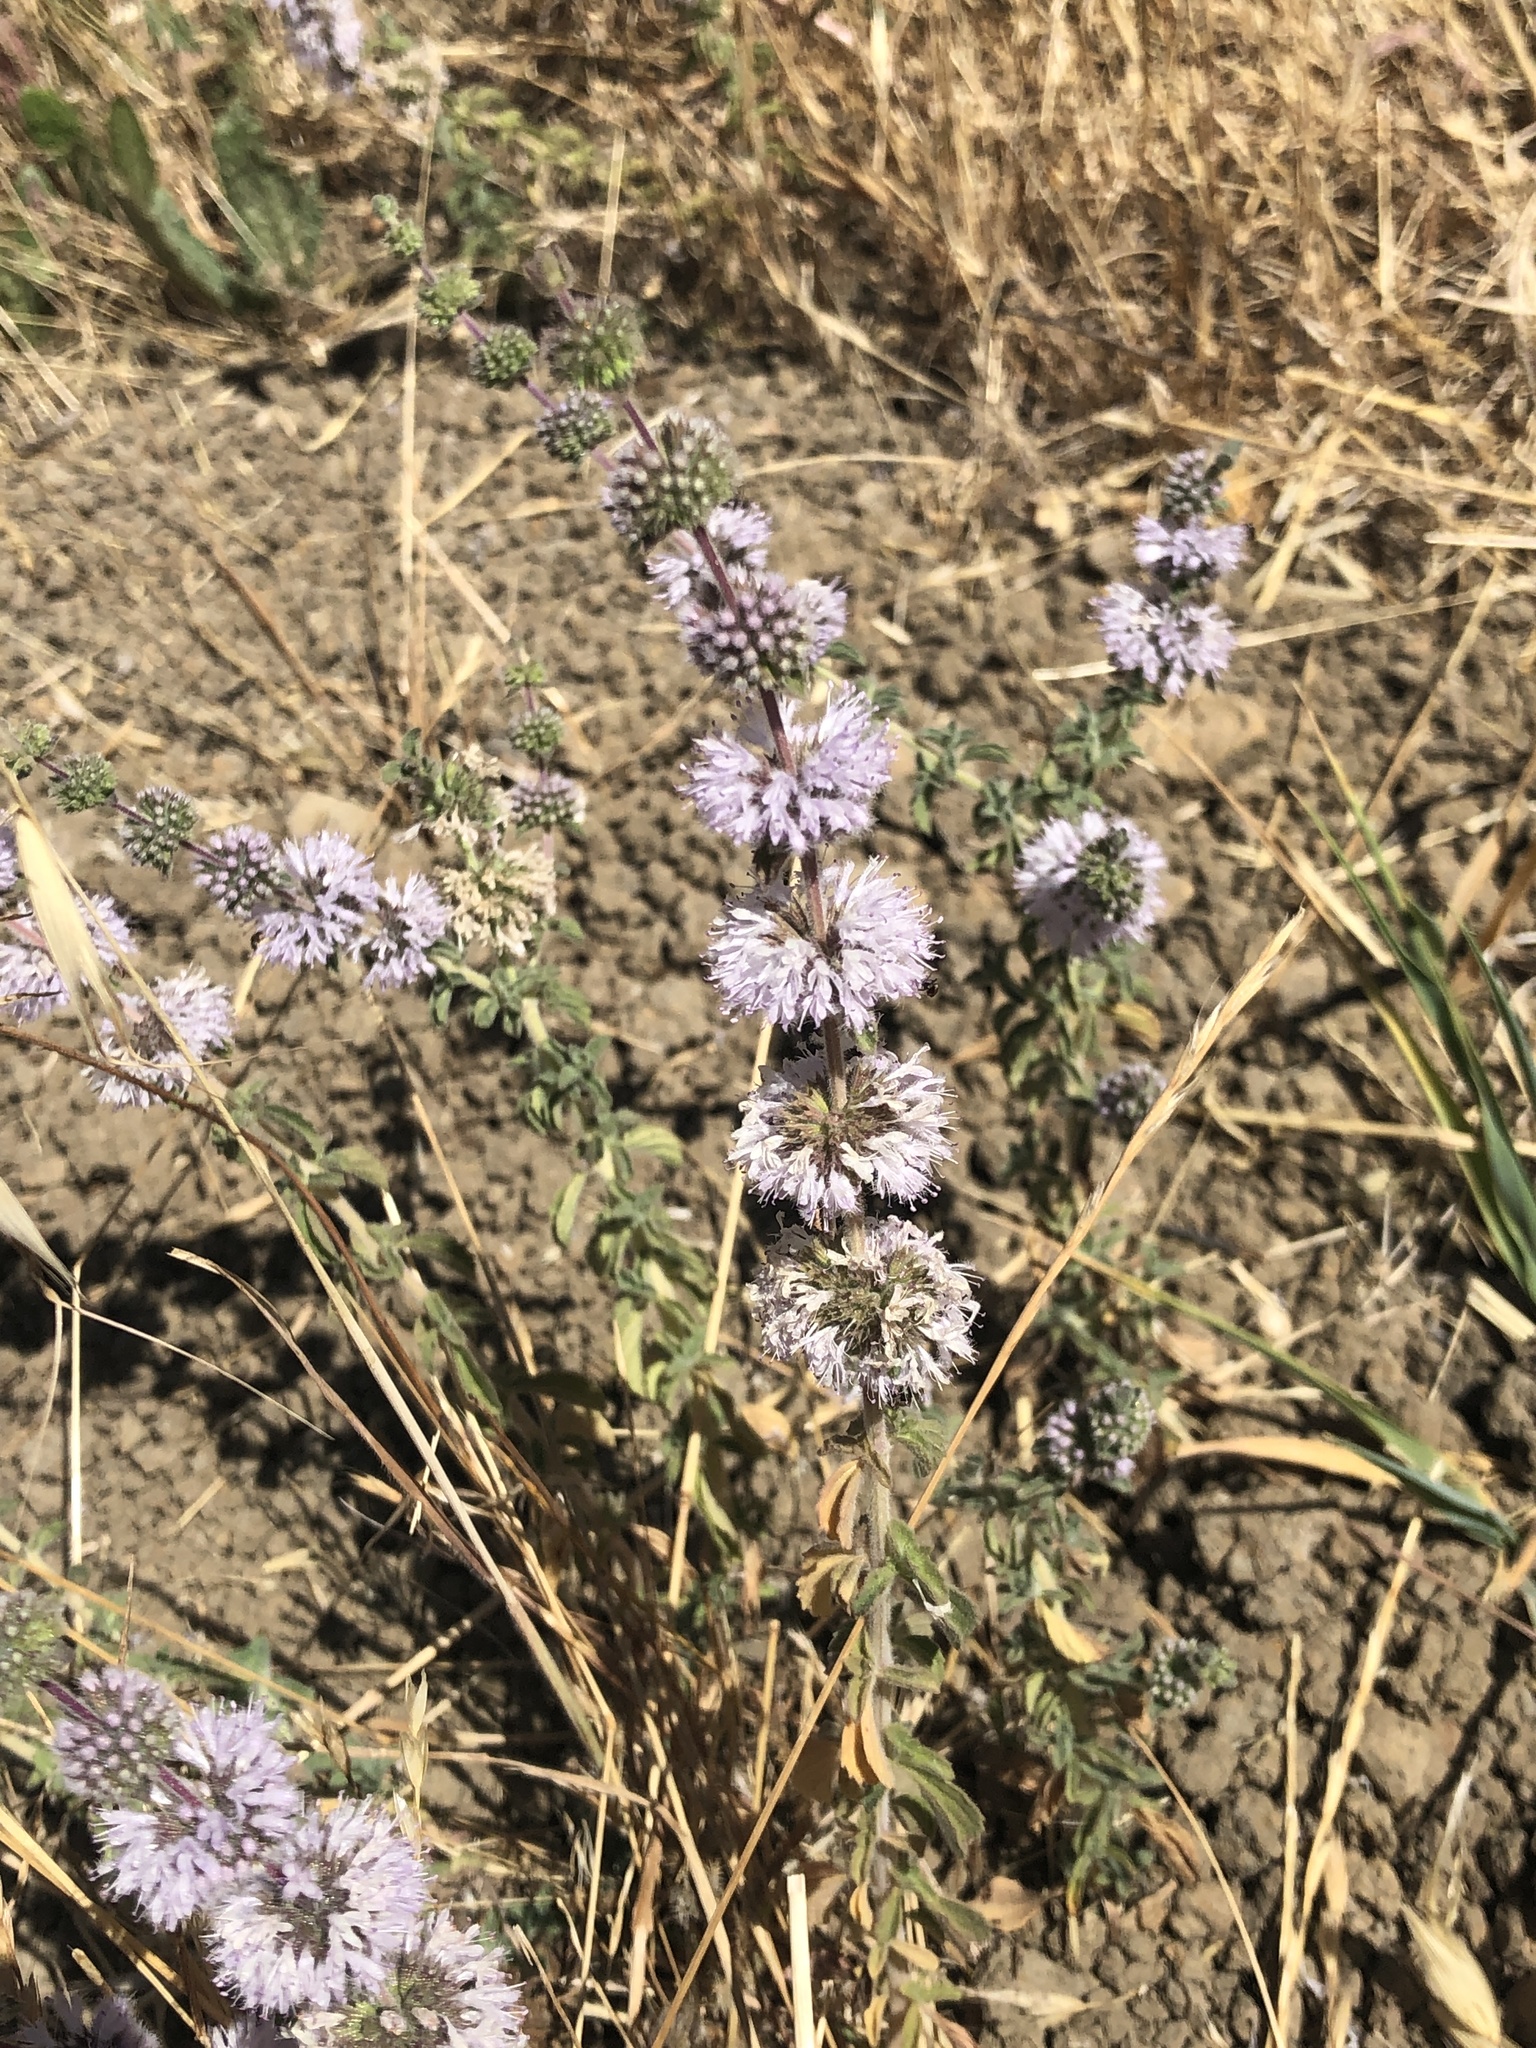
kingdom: Plantae
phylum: Tracheophyta
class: Magnoliopsida
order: Lamiales
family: Lamiaceae
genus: Mentha
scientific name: Mentha pulegium
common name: Pennyroyal
